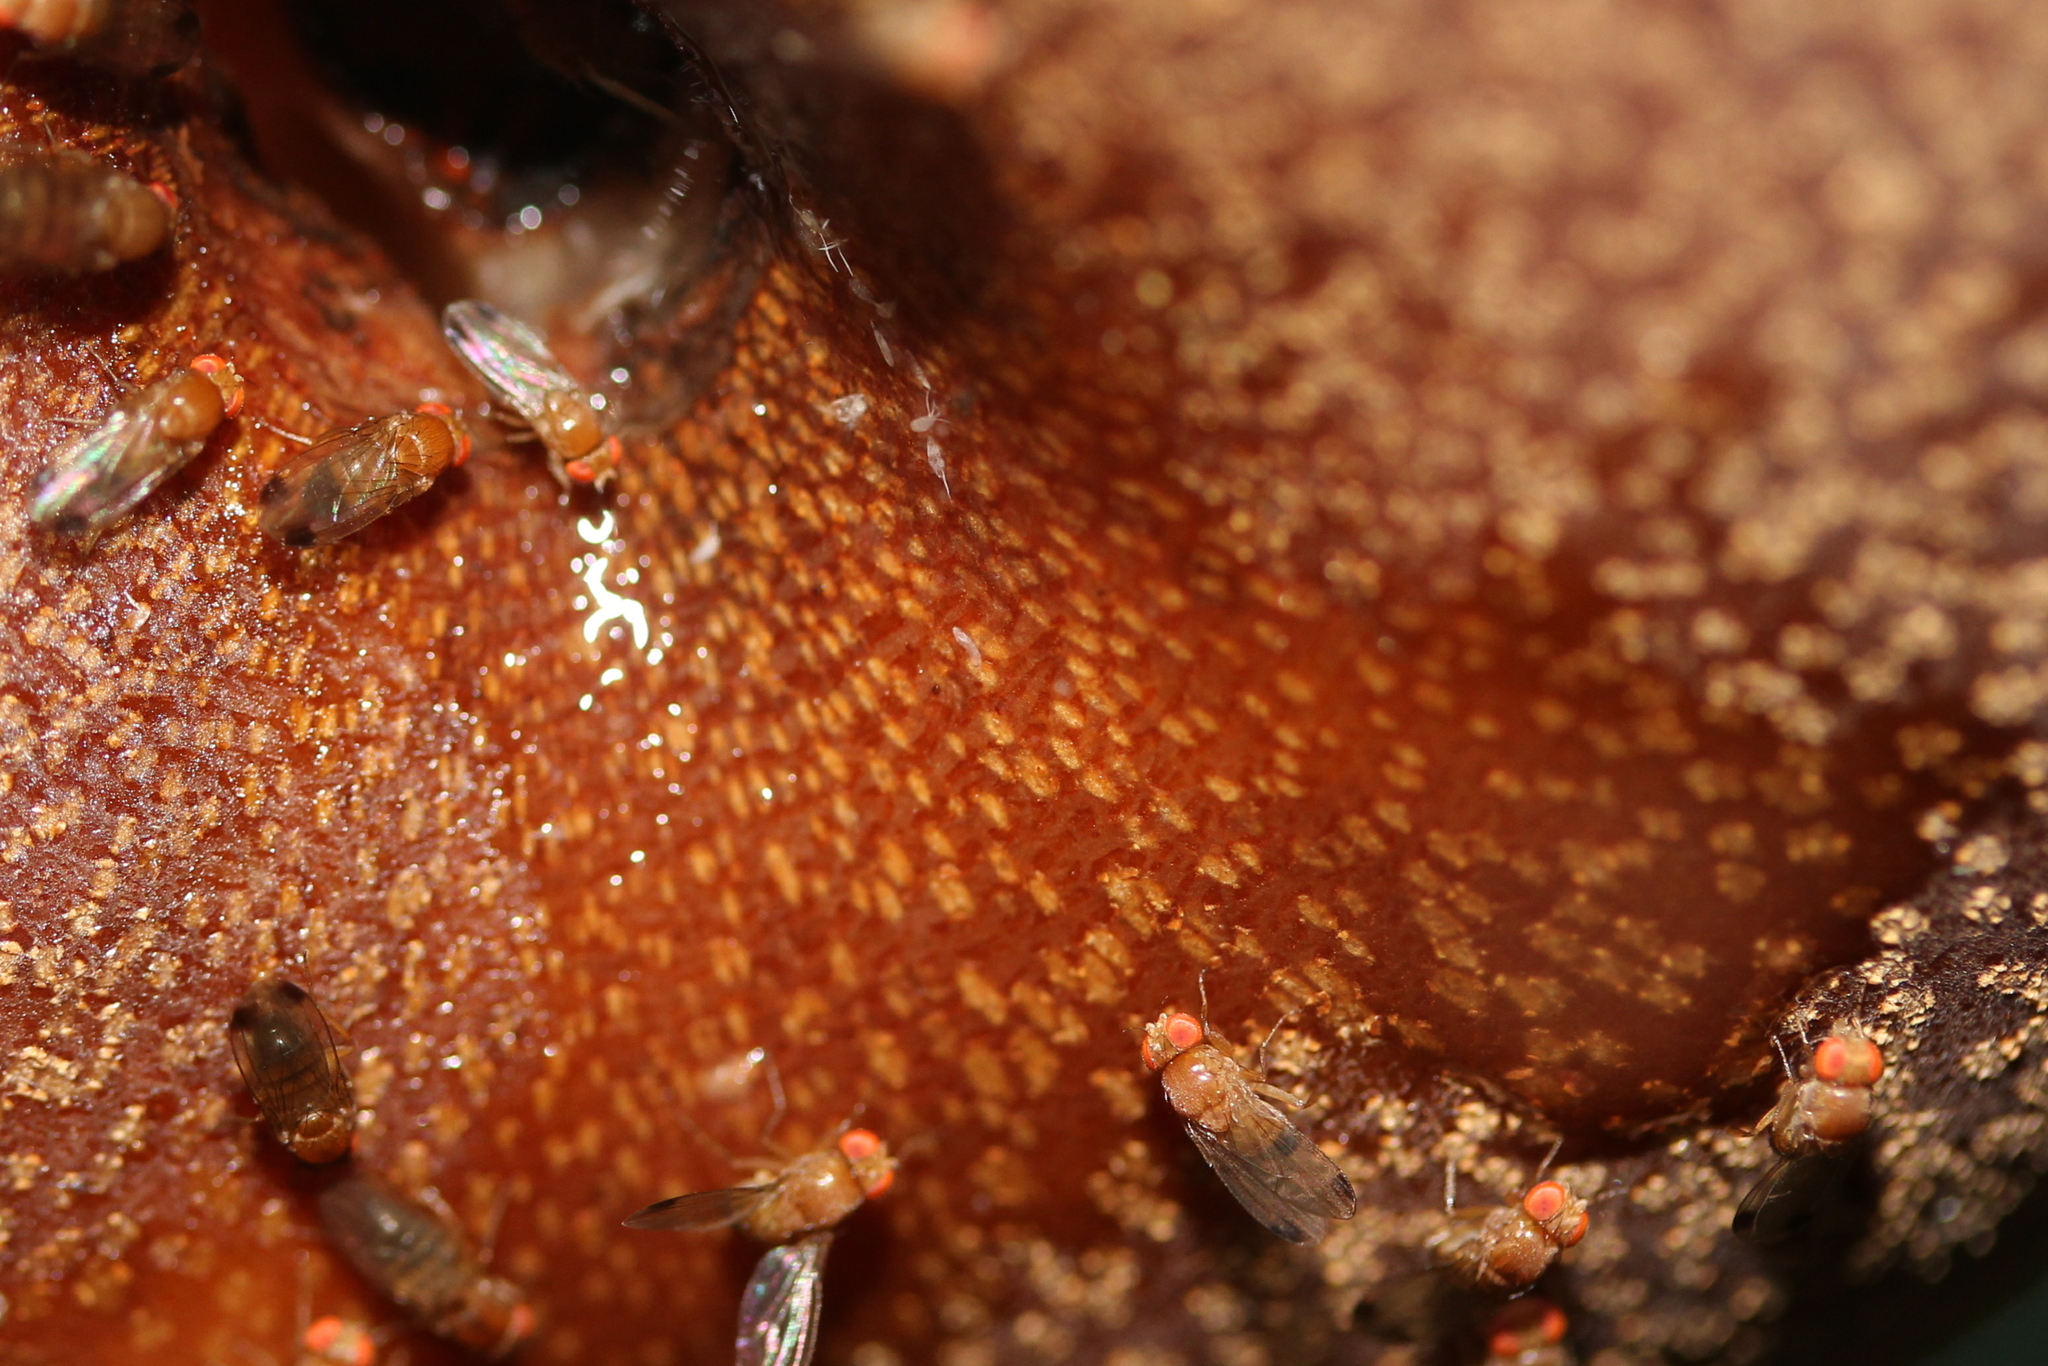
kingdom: Animalia
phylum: Arthropoda
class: Insecta
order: Diptera
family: Drosophilidae
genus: Drosophila
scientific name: Drosophila suzukii
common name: Spotted-wing drosophila
